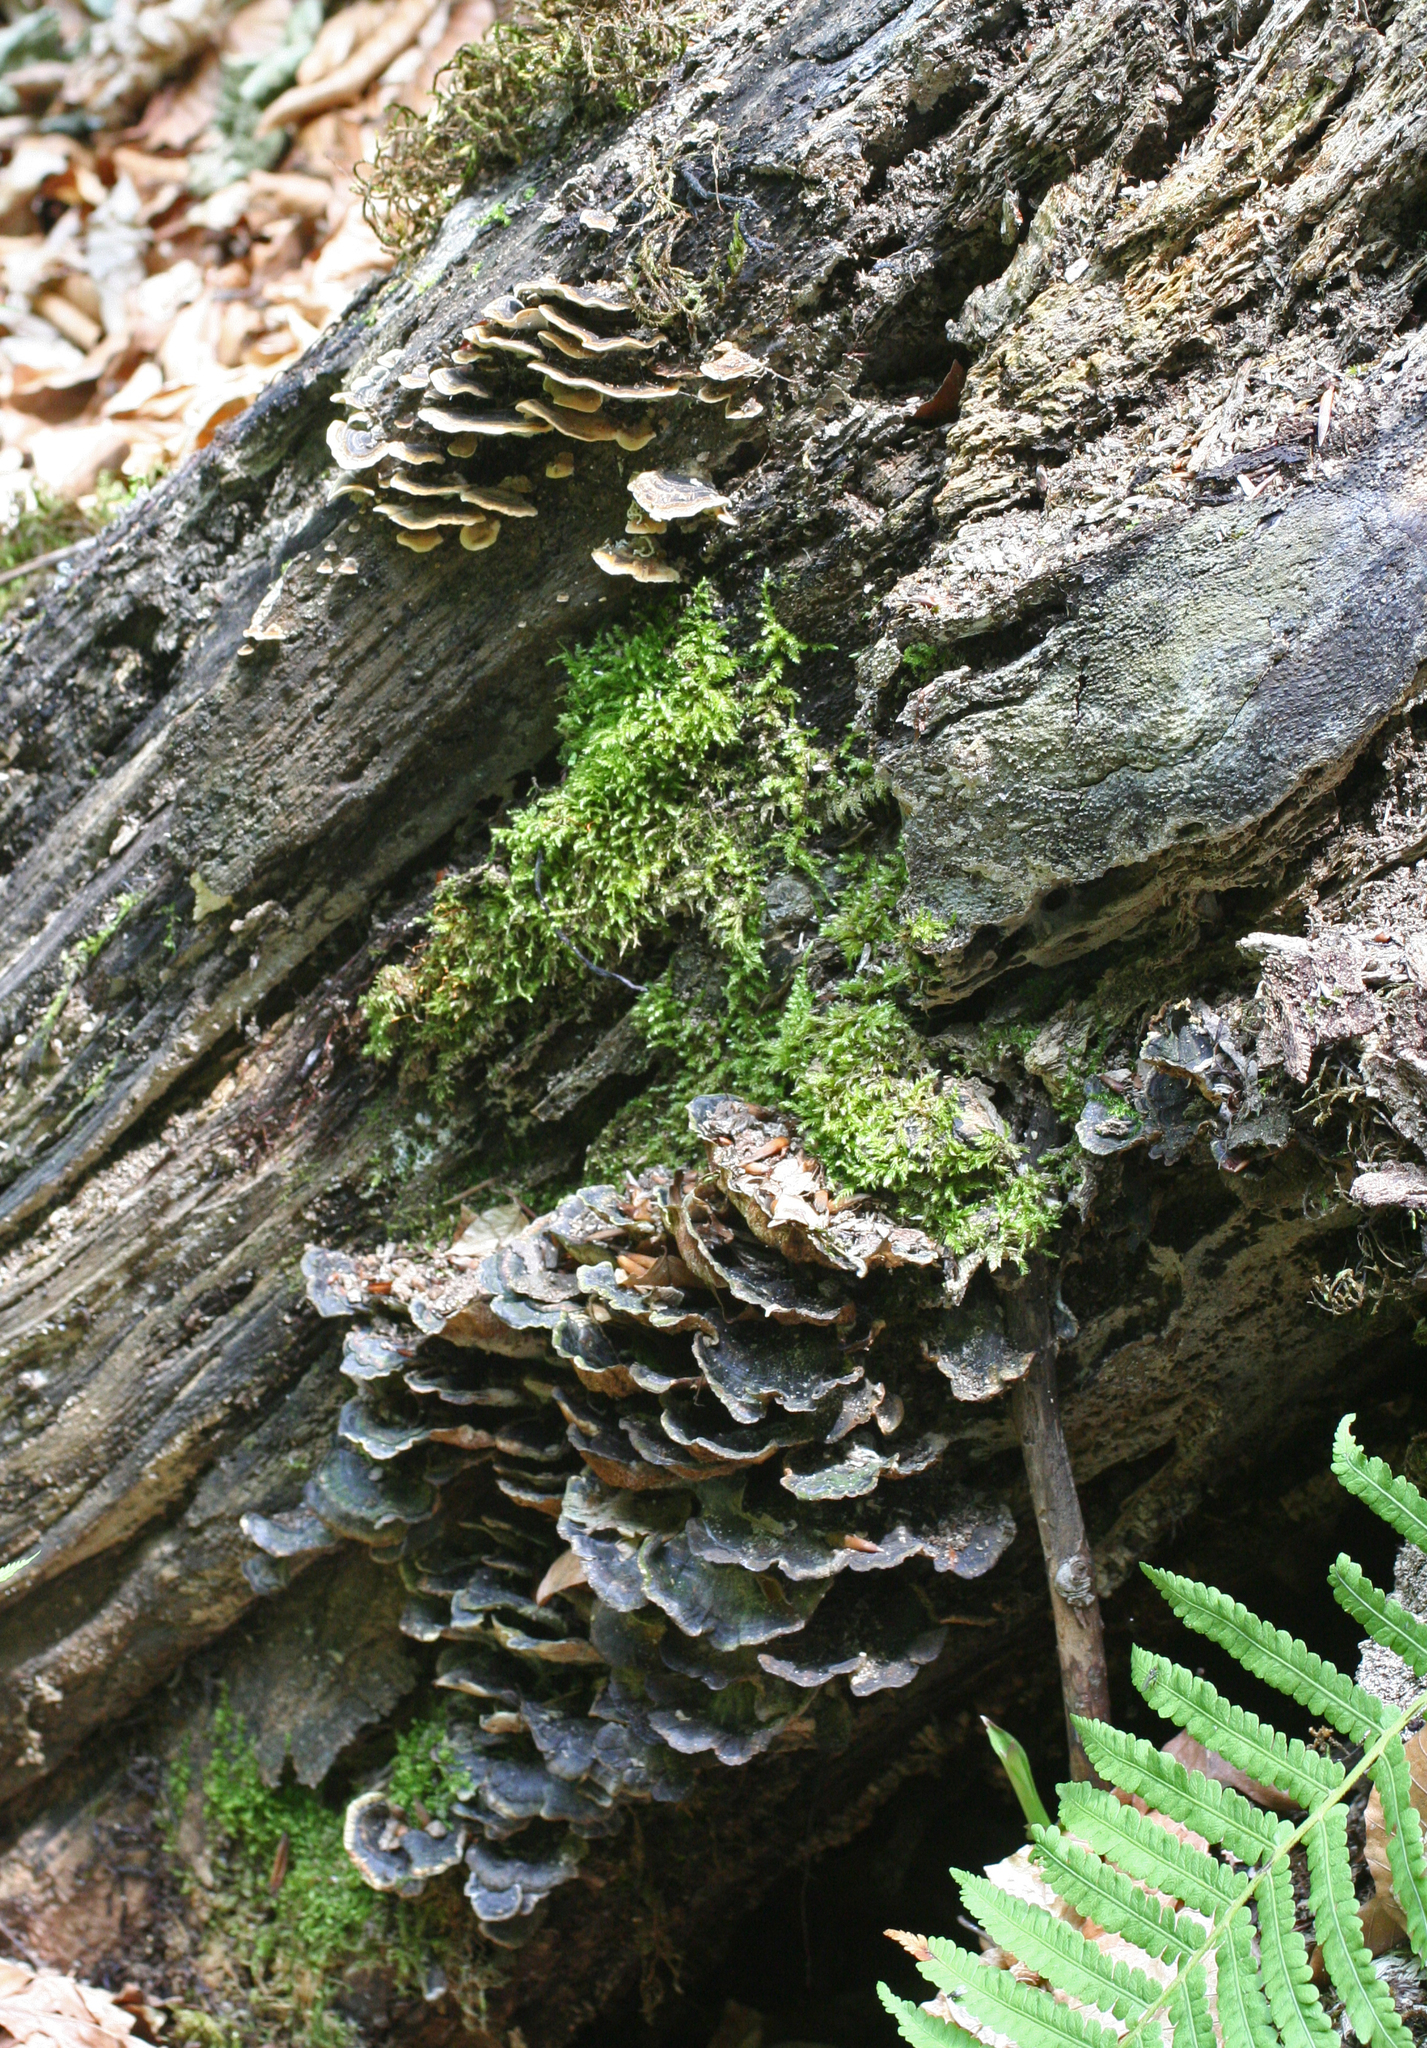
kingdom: Fungi
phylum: Basidiomycota
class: Agaricomycetes
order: Polyporales
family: Polyporaceae
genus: Trametes
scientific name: Trametes versicolor
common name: Turkeytail
